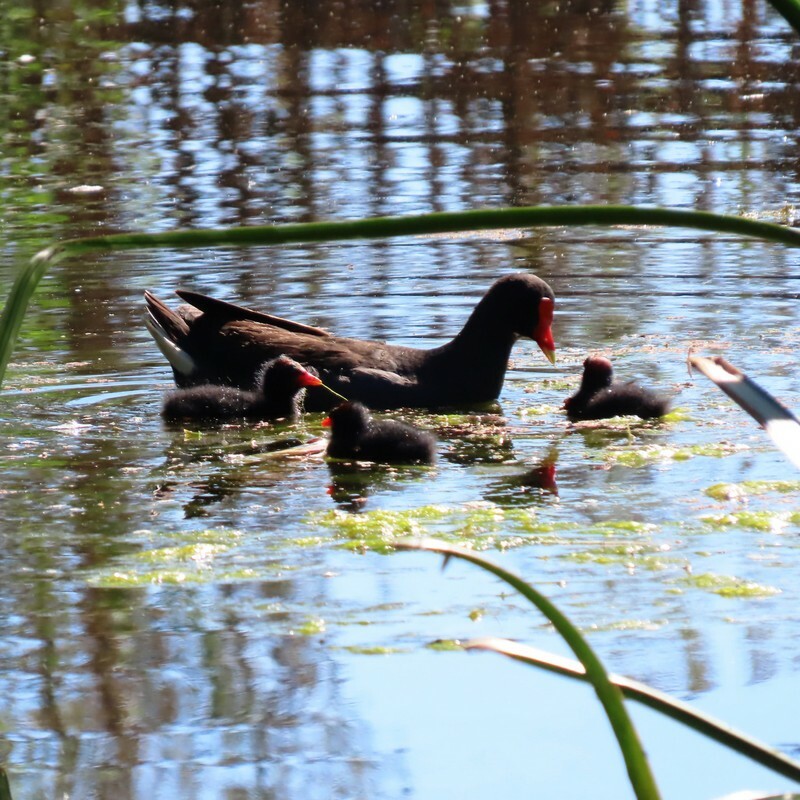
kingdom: Animalia
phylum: Chordata
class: Aves
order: Gruiformes
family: Rallidae
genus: Gallinula
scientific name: Gallinula tenebrosa
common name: Dusky moorhen
